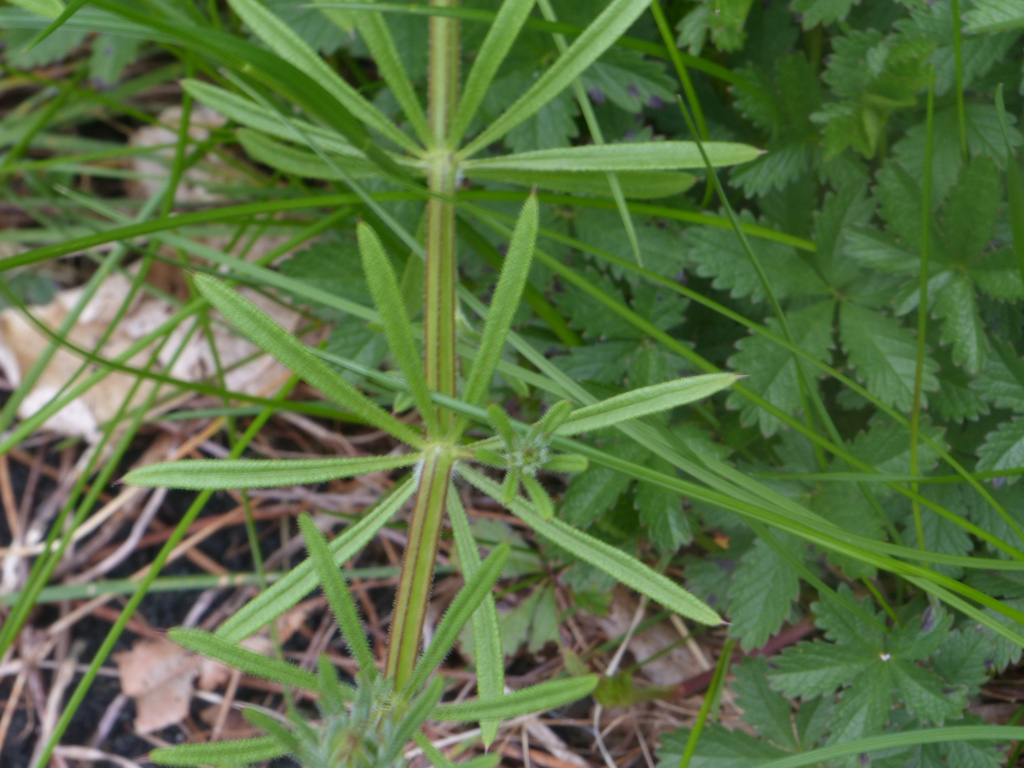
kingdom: Plantae
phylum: Tracheophyta
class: Magnoliopsida
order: Gentianales
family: Rubiaceae
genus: Galium
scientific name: Galium aparine
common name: Cleavers
